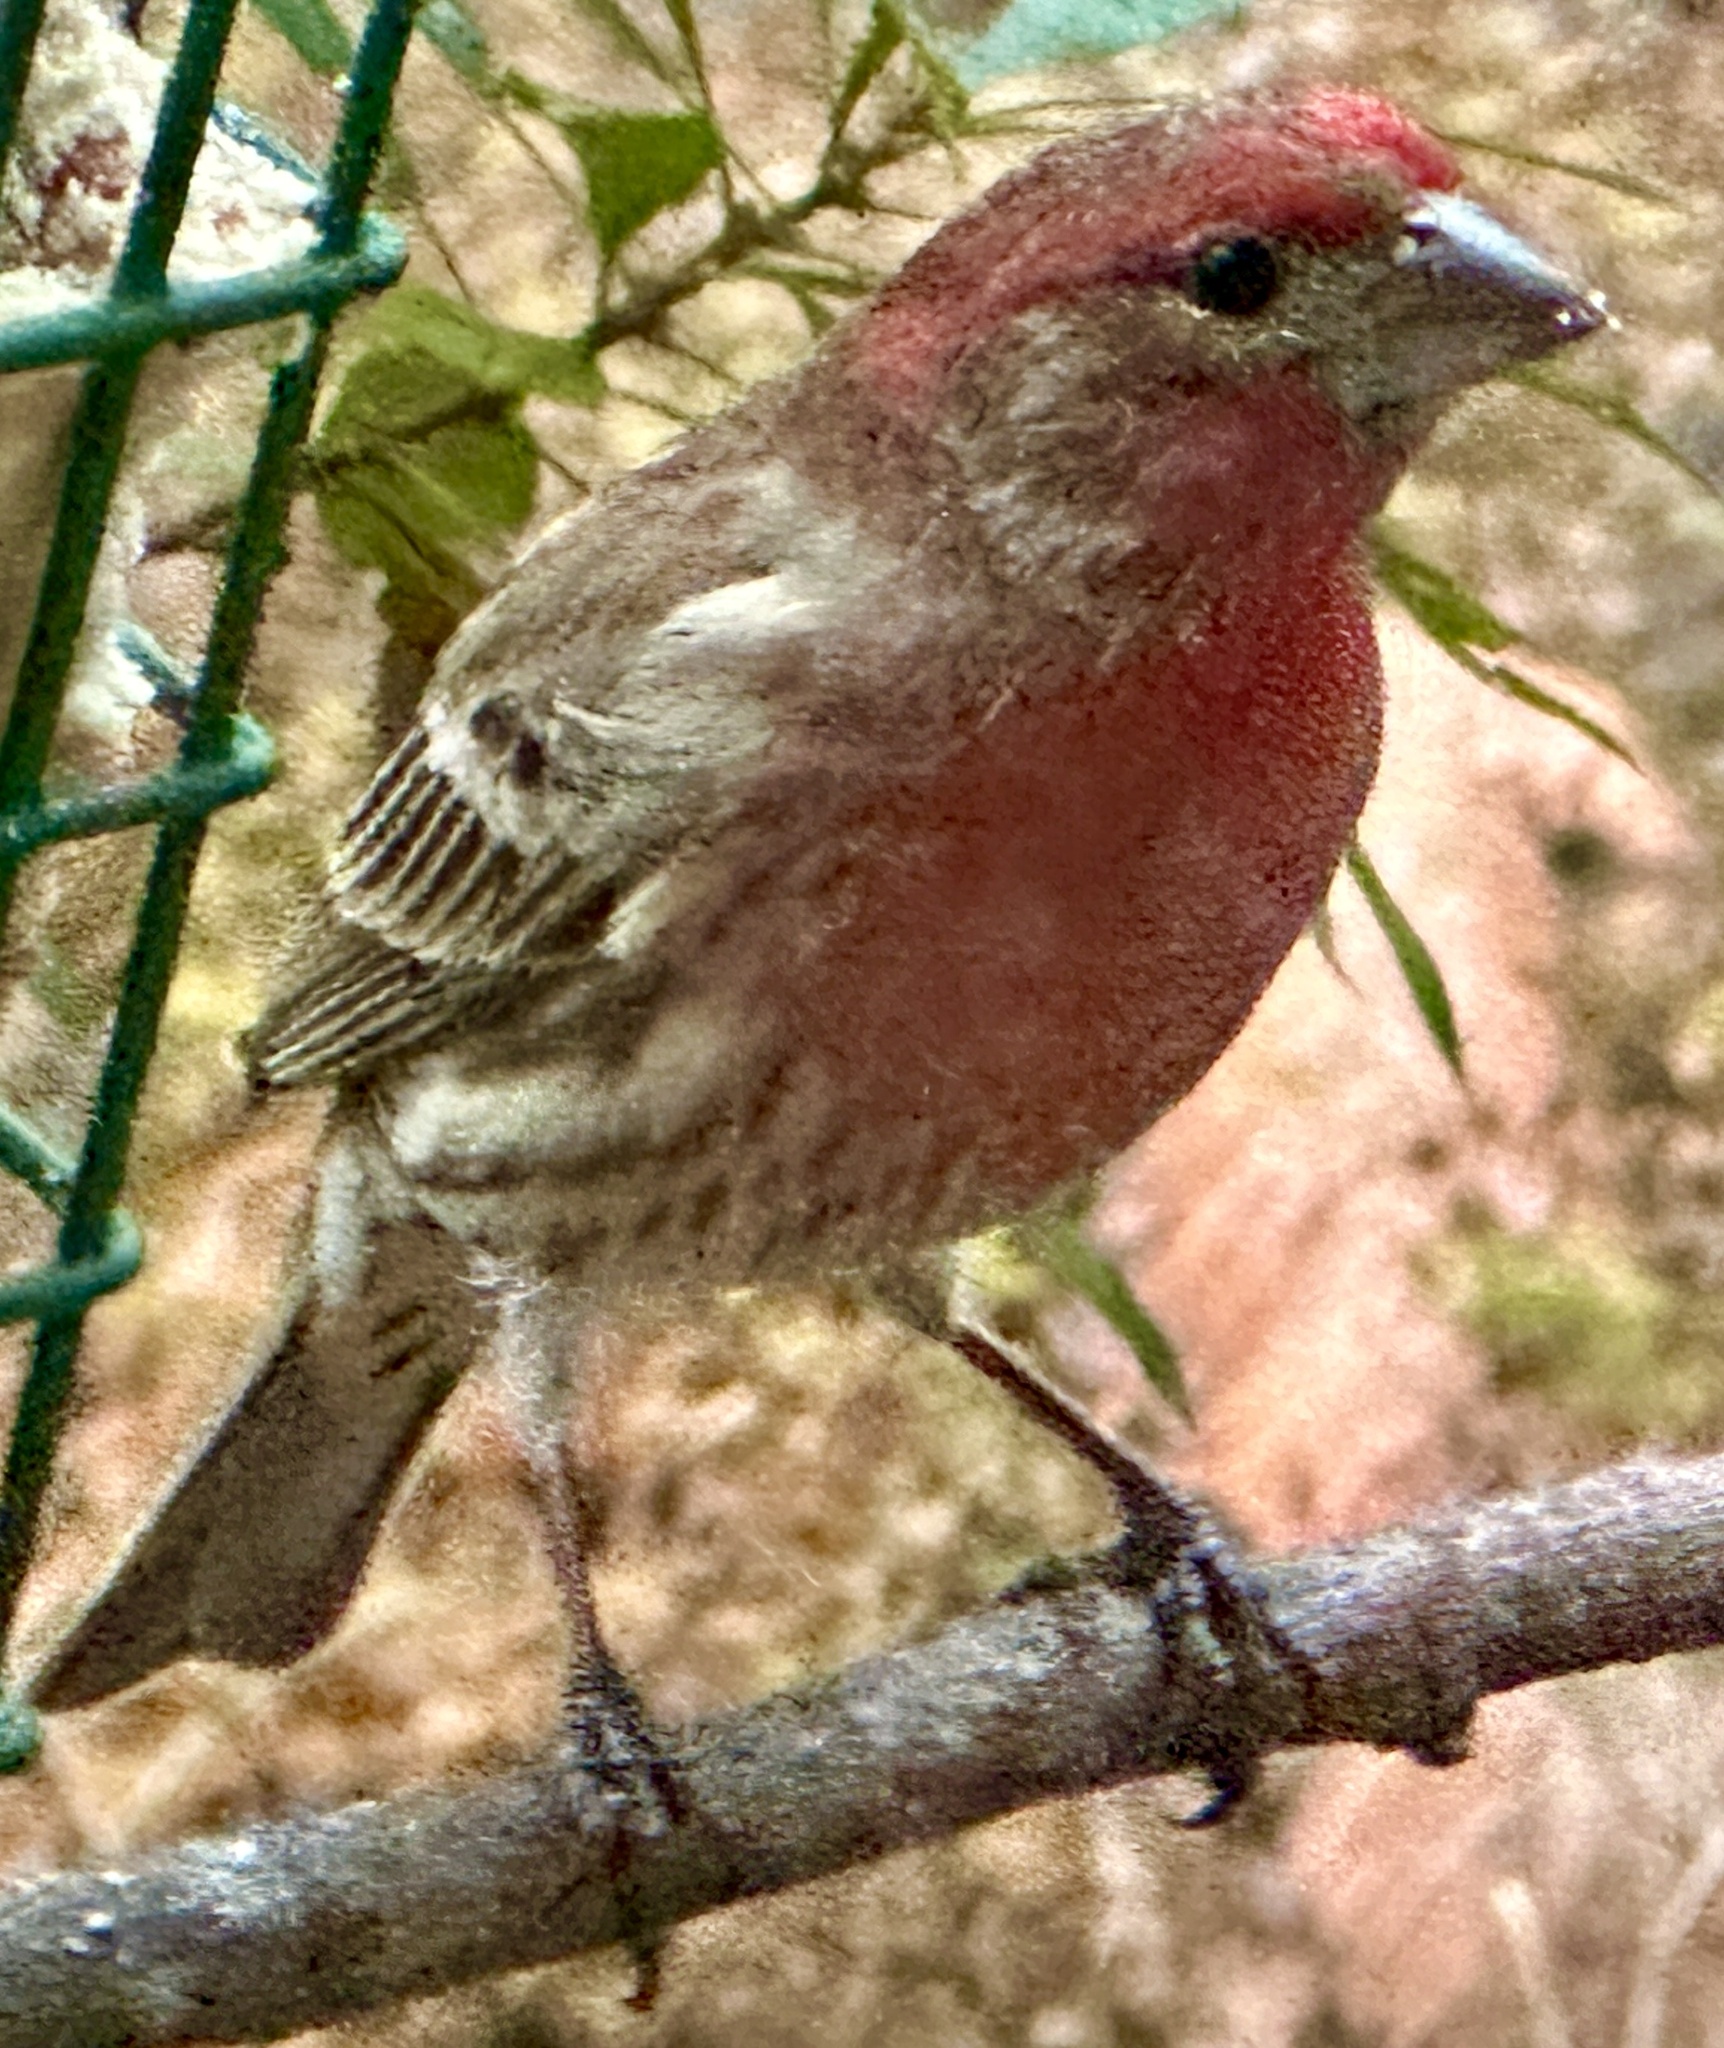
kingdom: Animalia
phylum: Chordata
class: Aves
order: Passeriformes
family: Fringillidae
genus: Haemorhous
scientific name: Haemorhous mexicanus
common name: House finch
